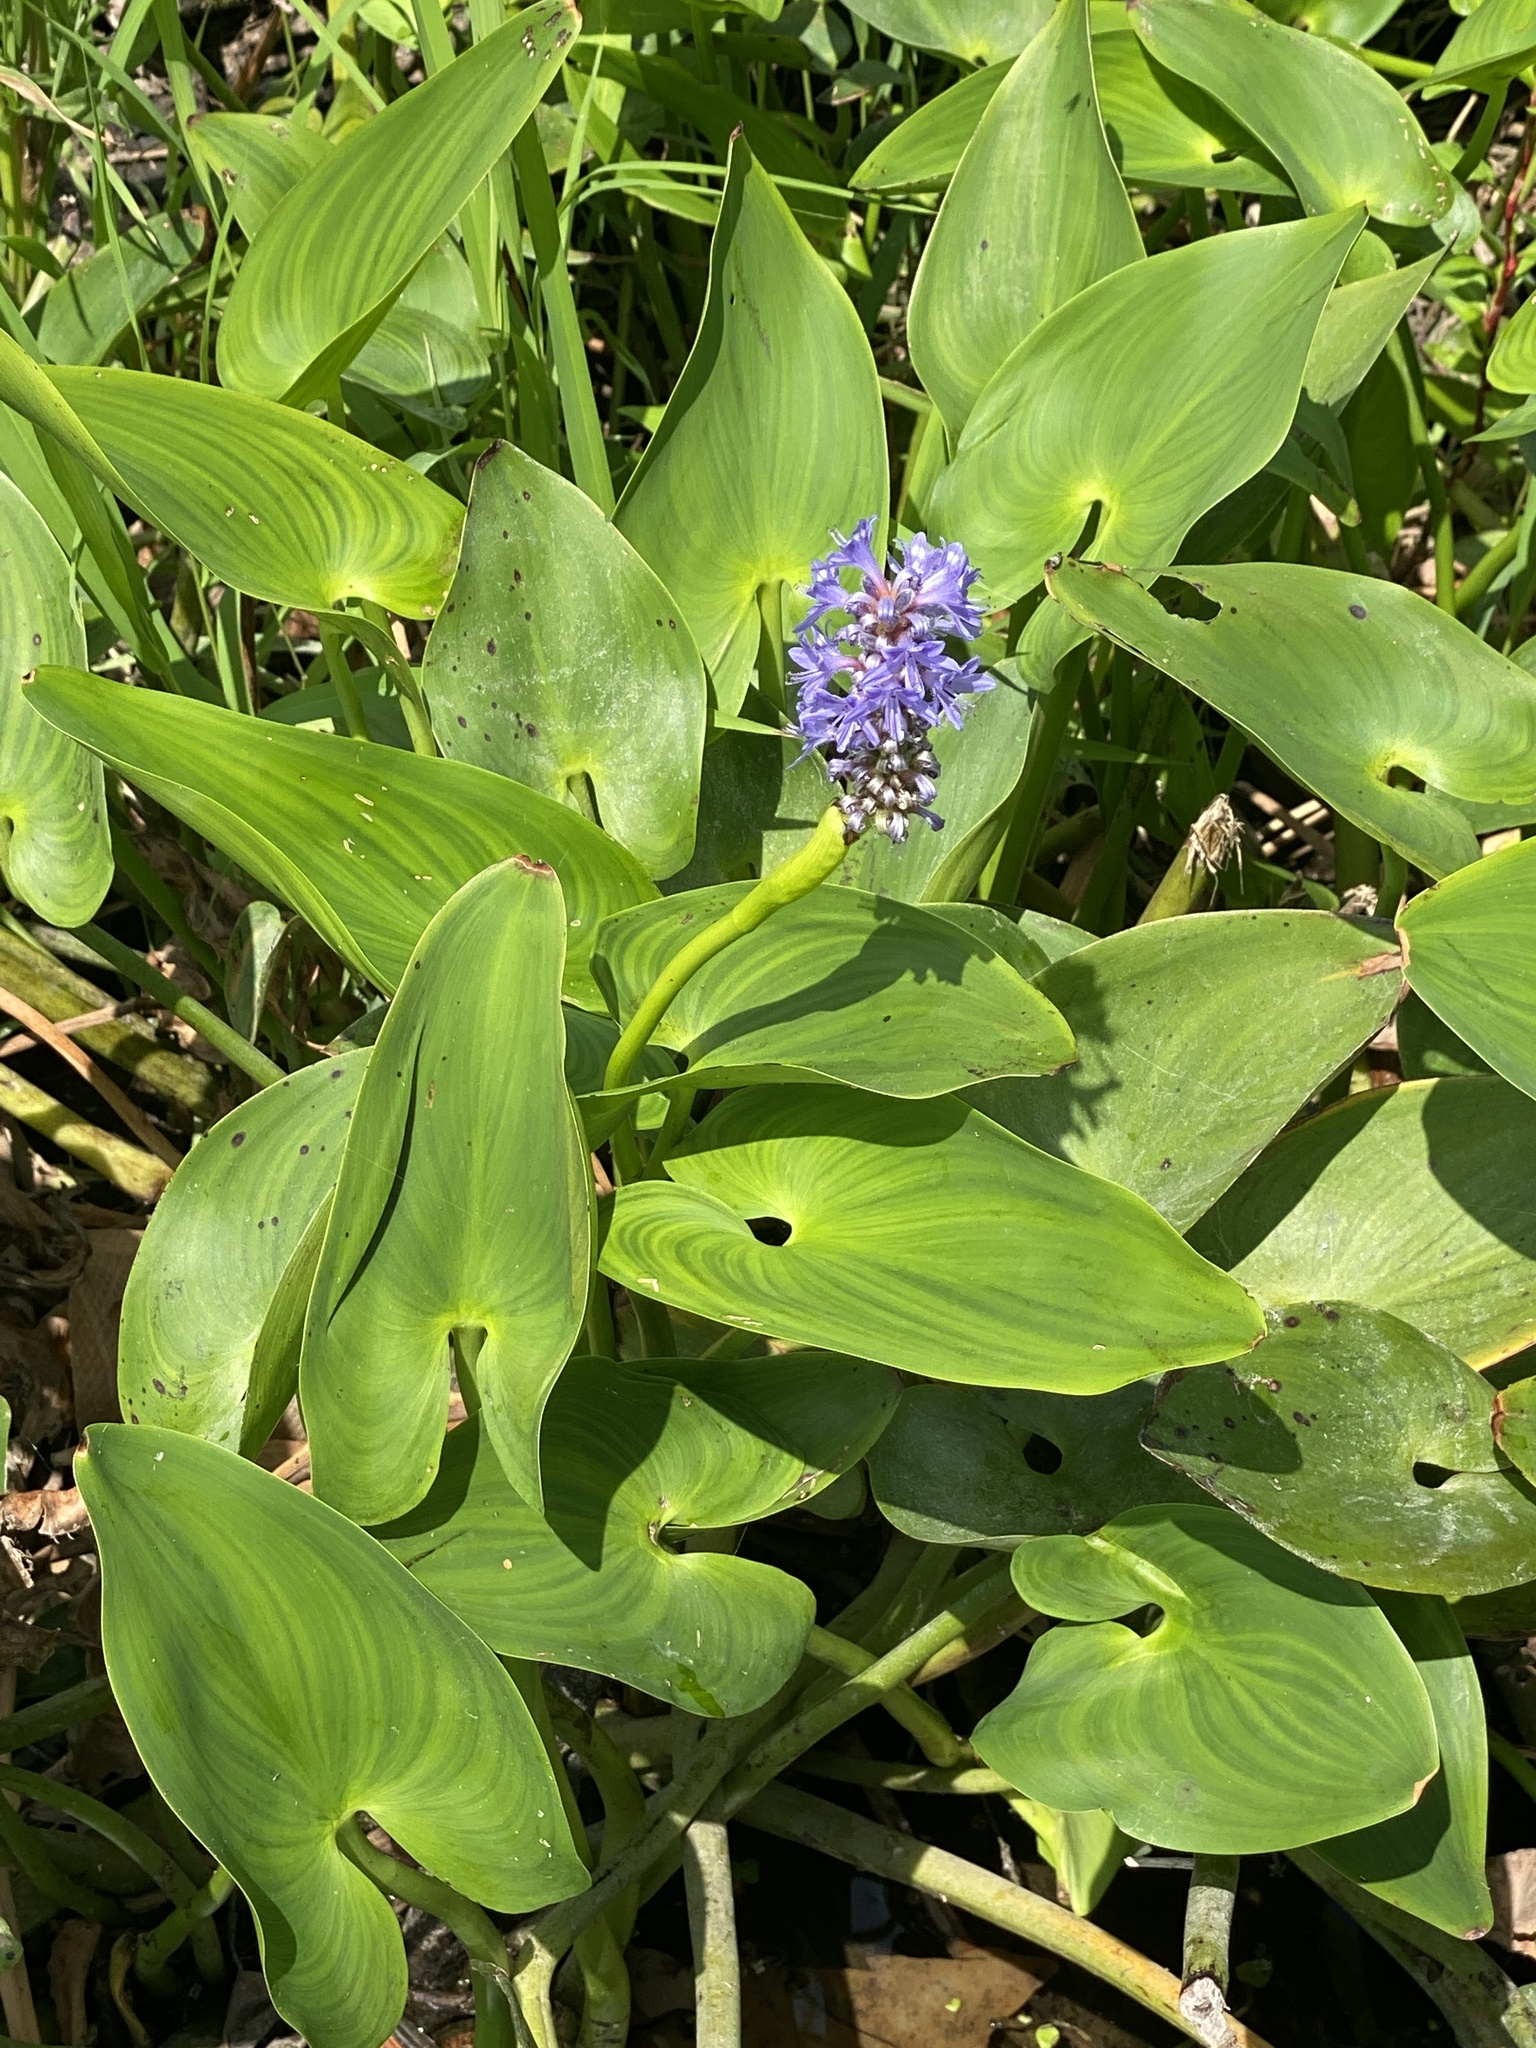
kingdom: Plantae
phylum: Tracheophyta
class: Liliopsida
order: Commelinales
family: Pontederiaceae
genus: Pontederia
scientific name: Pontederia cordata
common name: Pickerelweed
